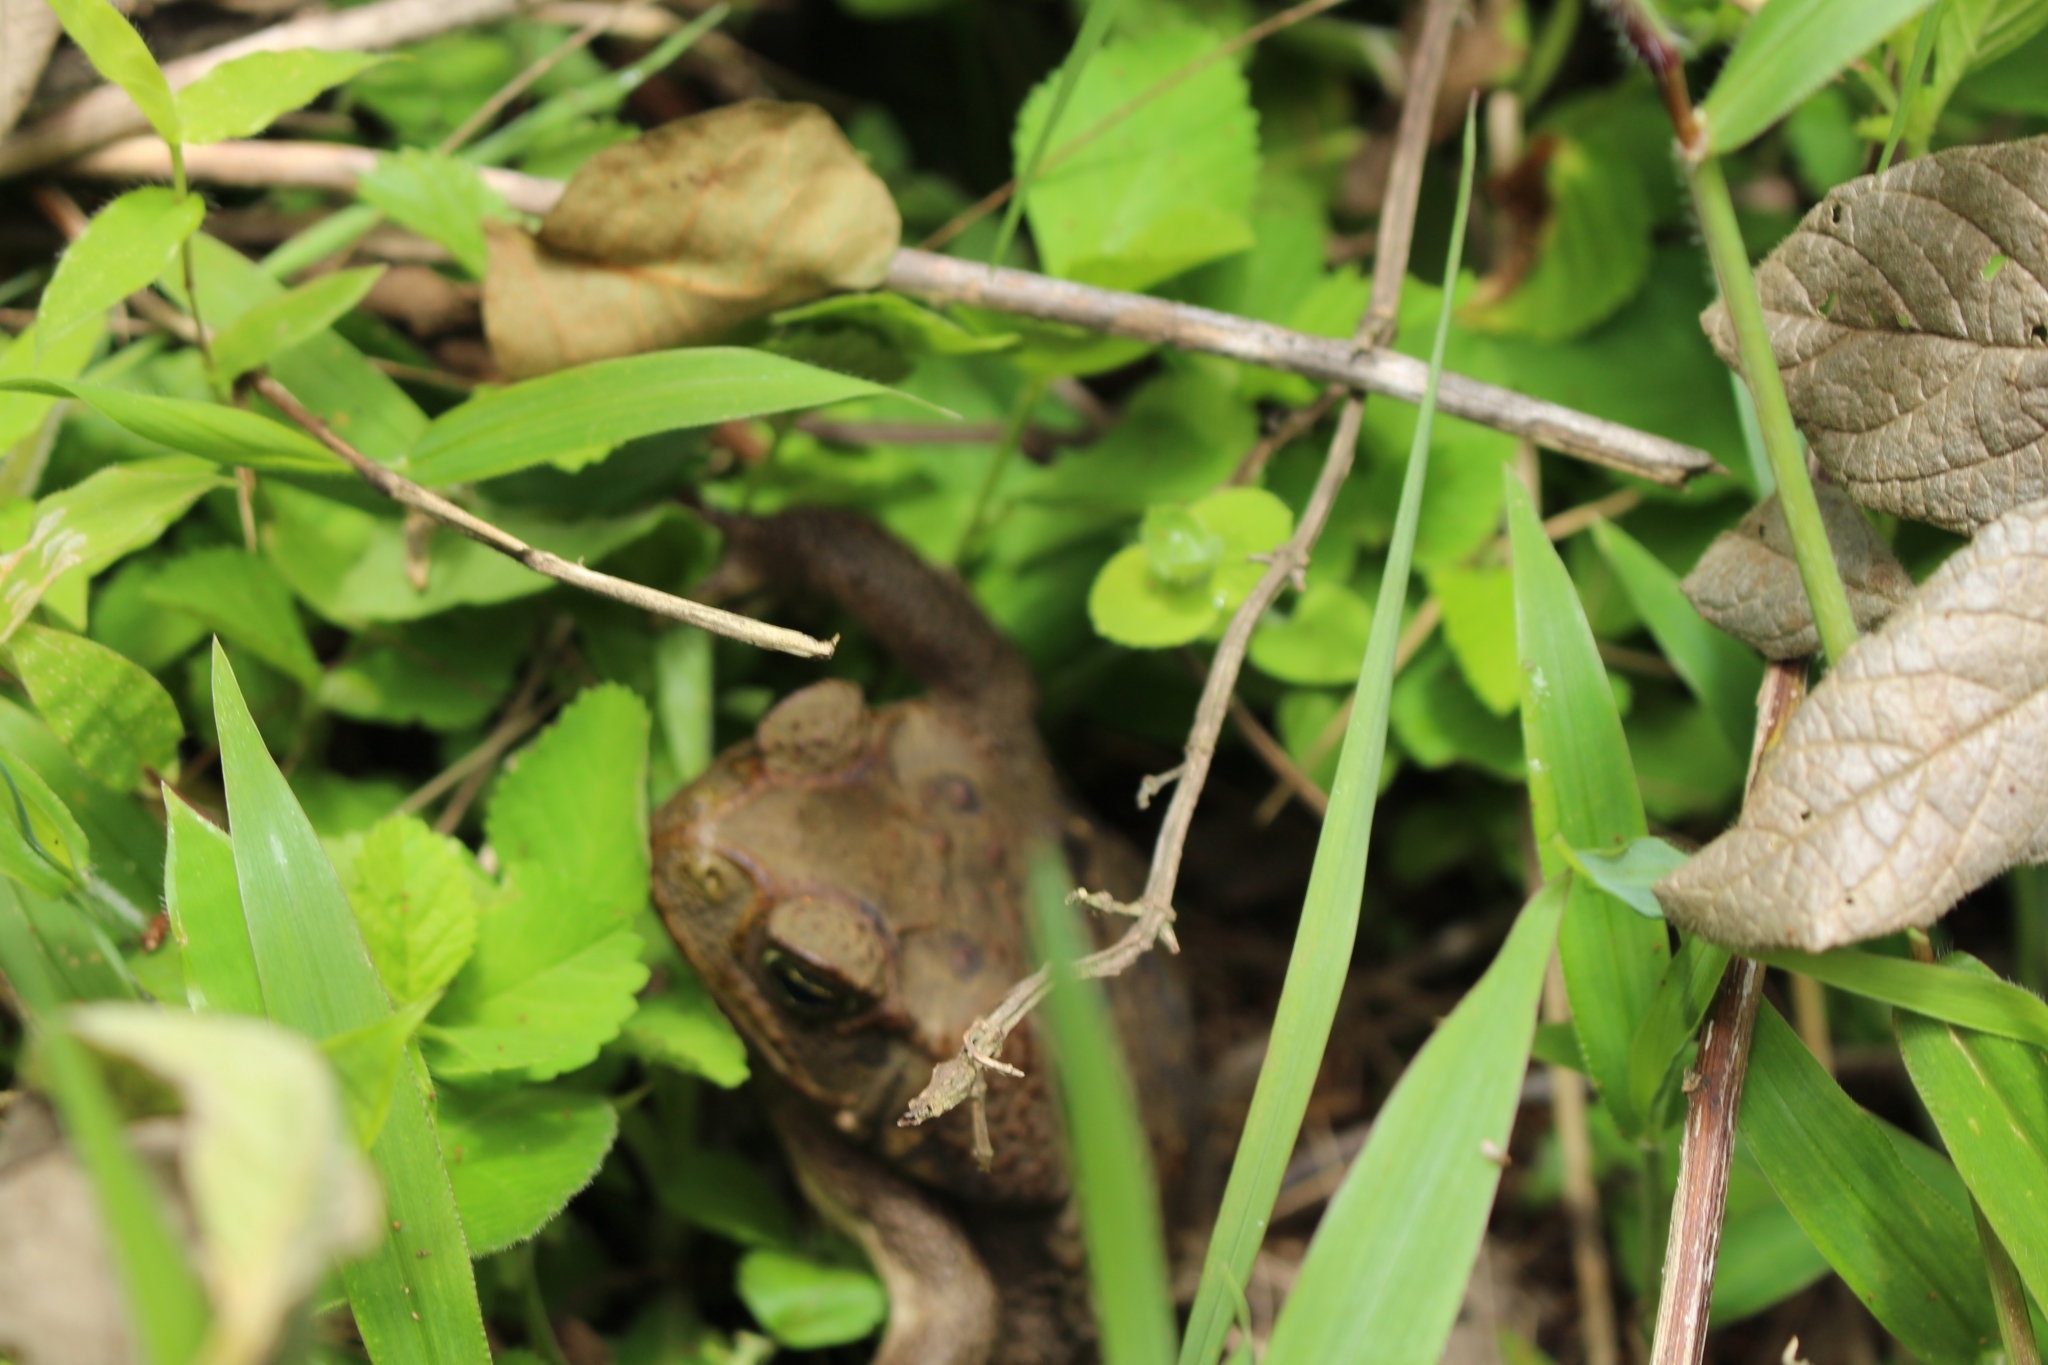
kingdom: Animalia
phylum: Chordata
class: Amphibia
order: Anura
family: Bufonidae
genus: Rhinella
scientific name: Rhinella horribilis
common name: Mesoamerican cane toad
